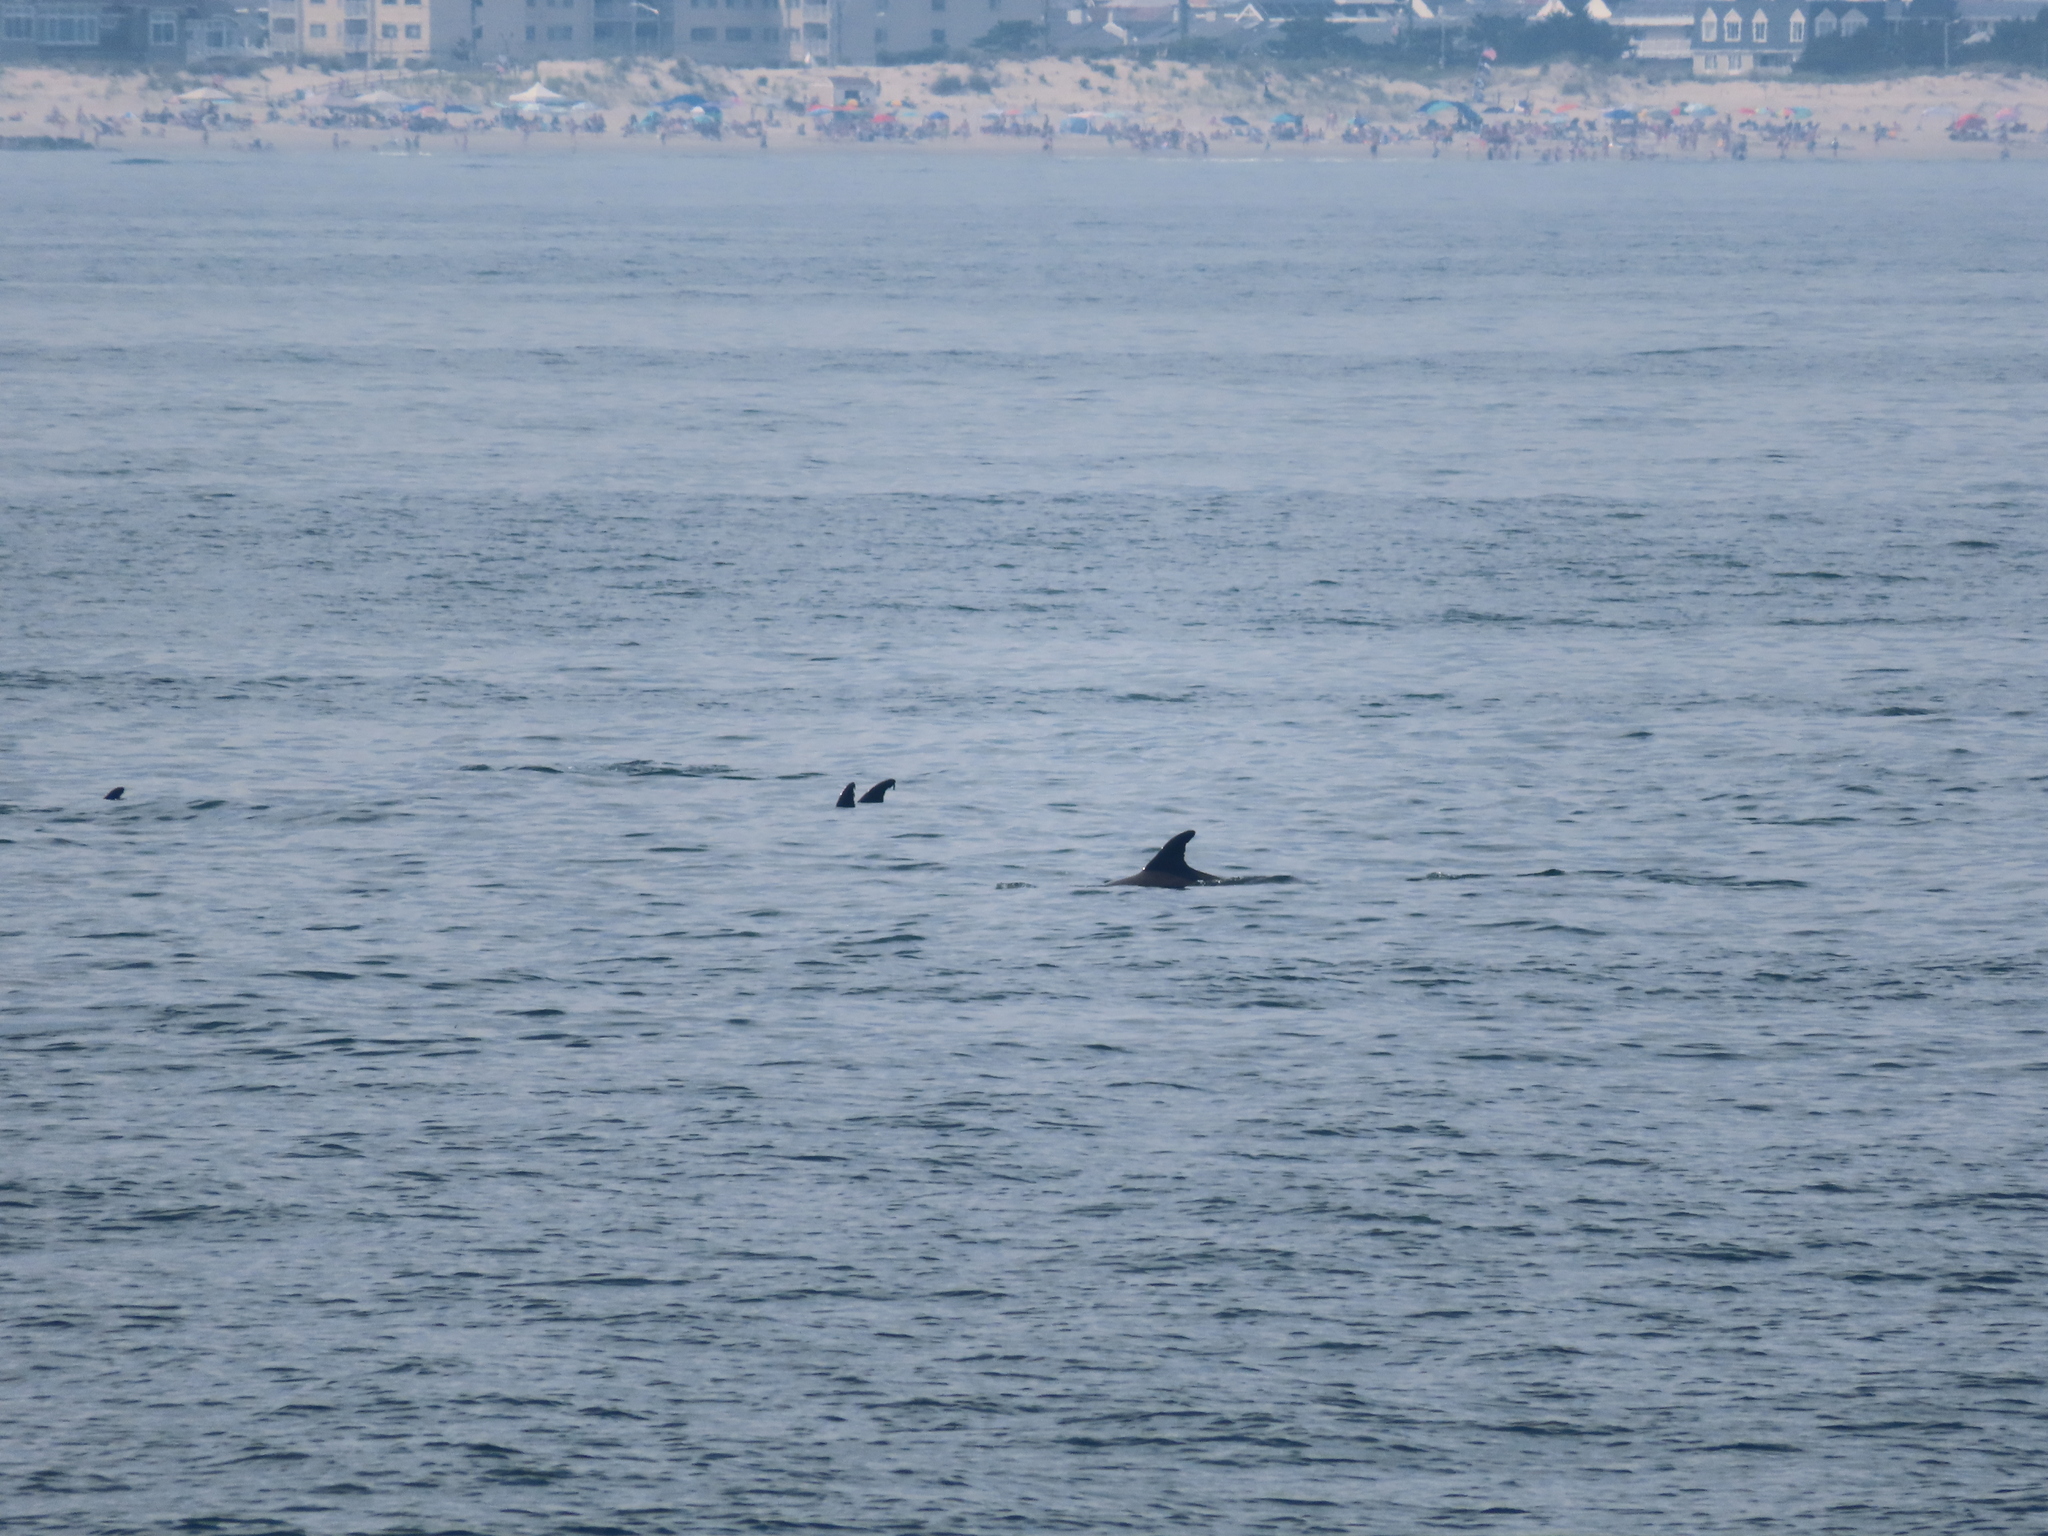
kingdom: Animalia
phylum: Chordata
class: Mammalia
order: Cetacea
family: Delphinidae
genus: Tursiops
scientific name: Tursiops truncatus
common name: Bottlenose dolphin
